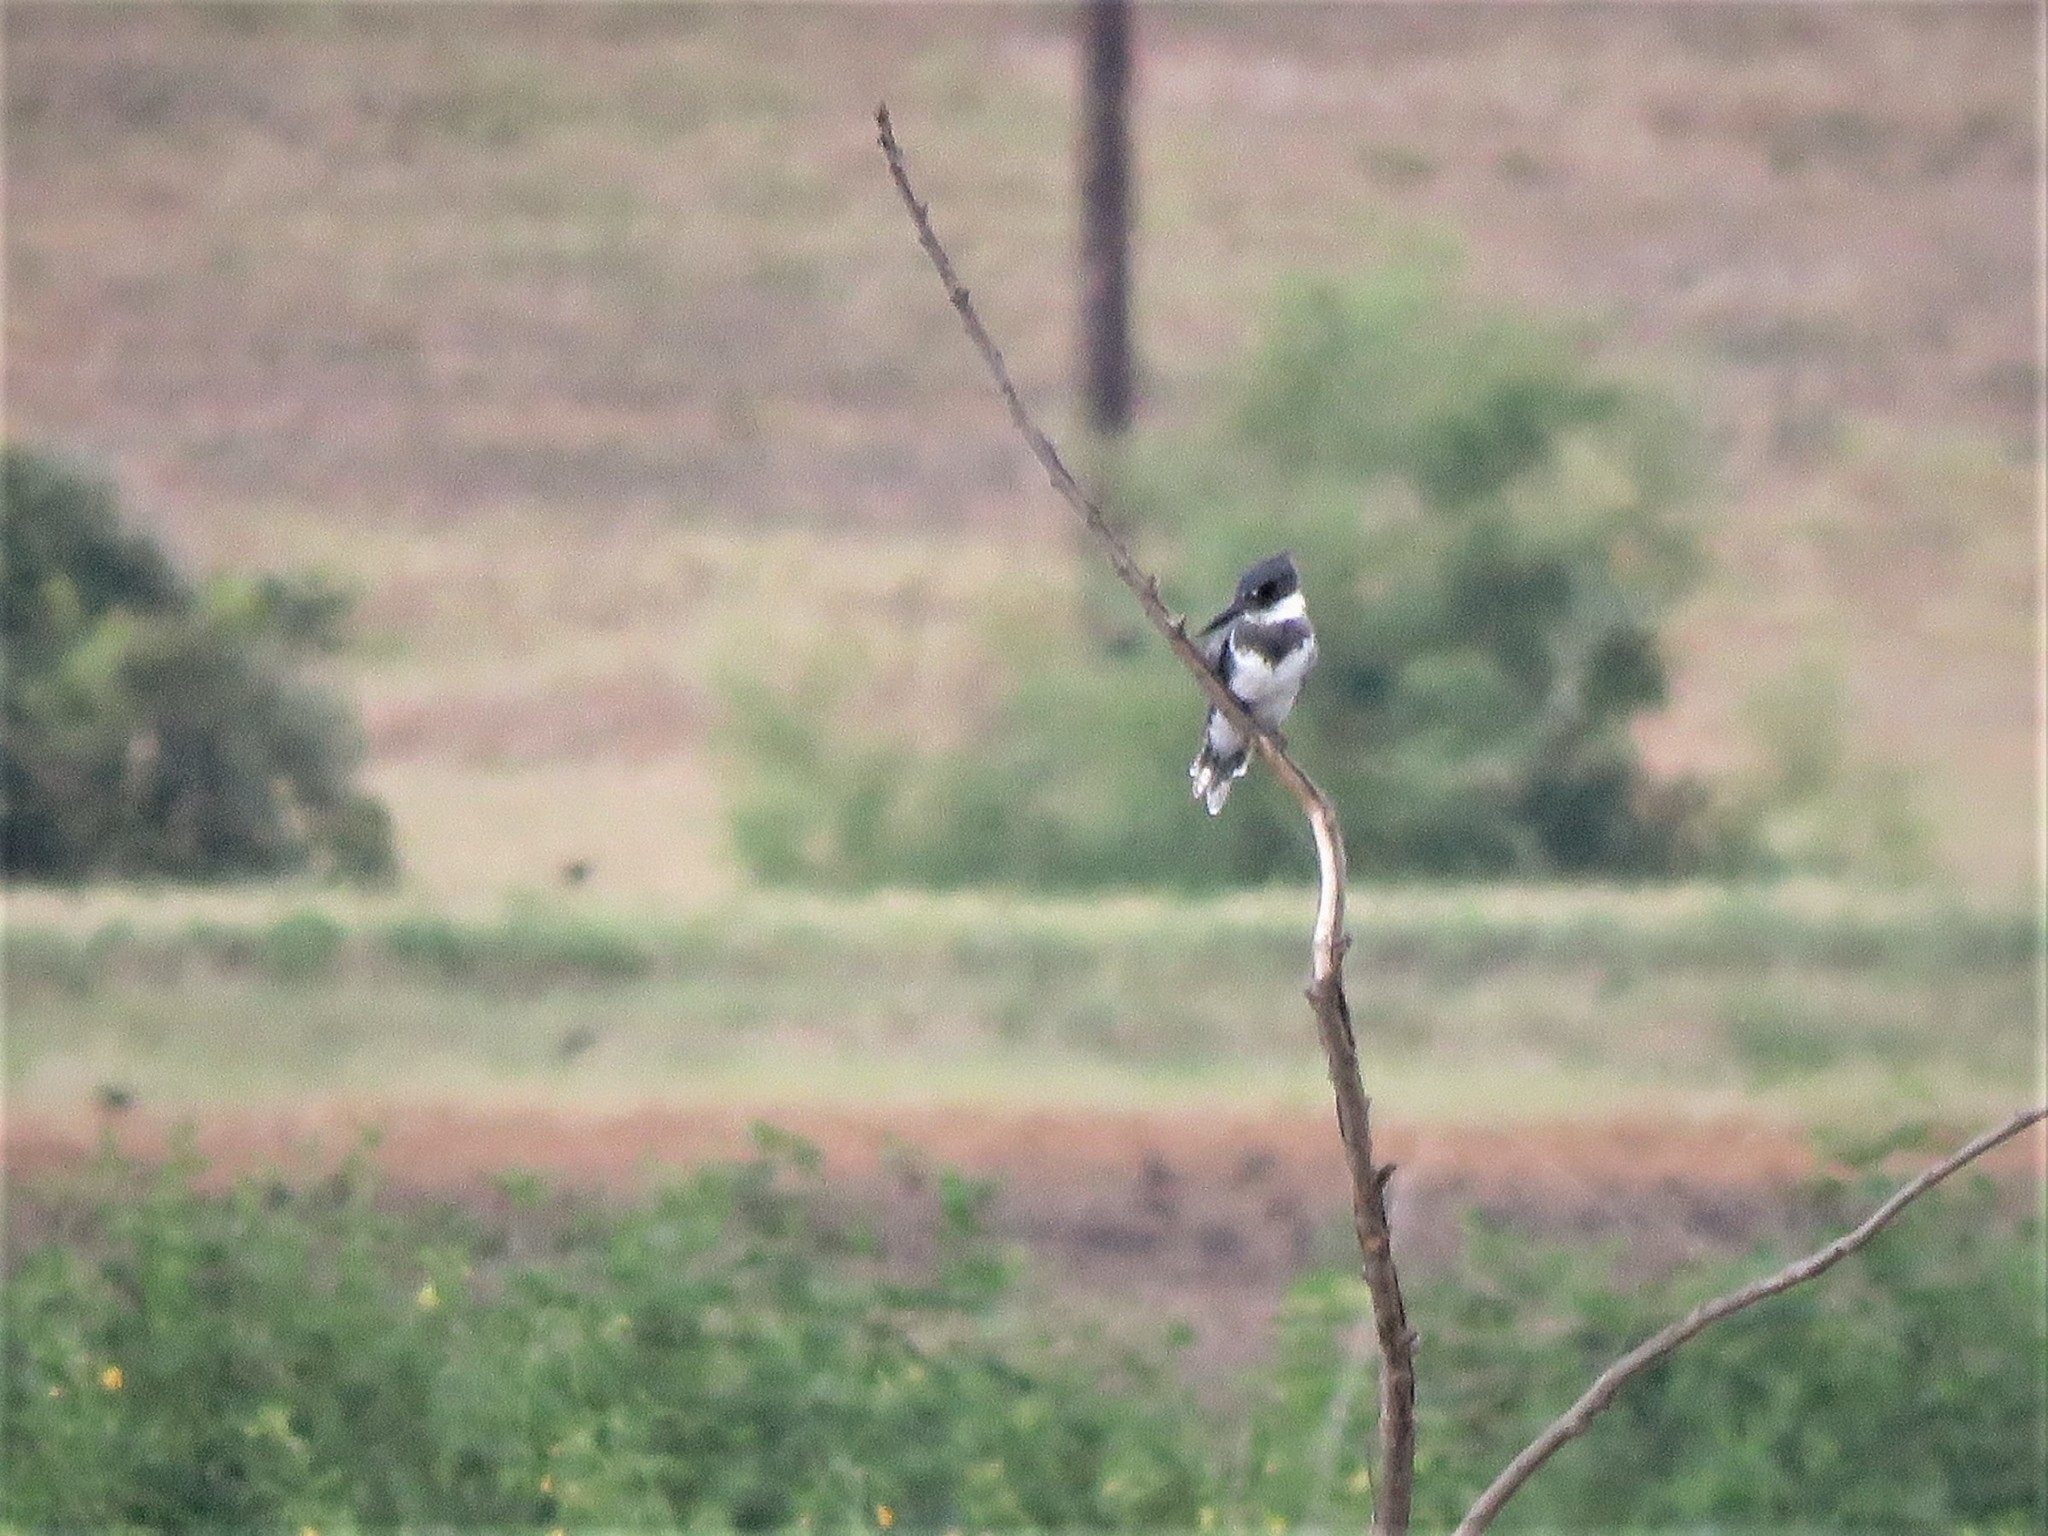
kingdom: Animalia
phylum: Chordata
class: Aves
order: Coraciiformes
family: Alcedinidae
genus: Megaceryle
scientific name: Megaceryle alcyon
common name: Belted kingfisher
